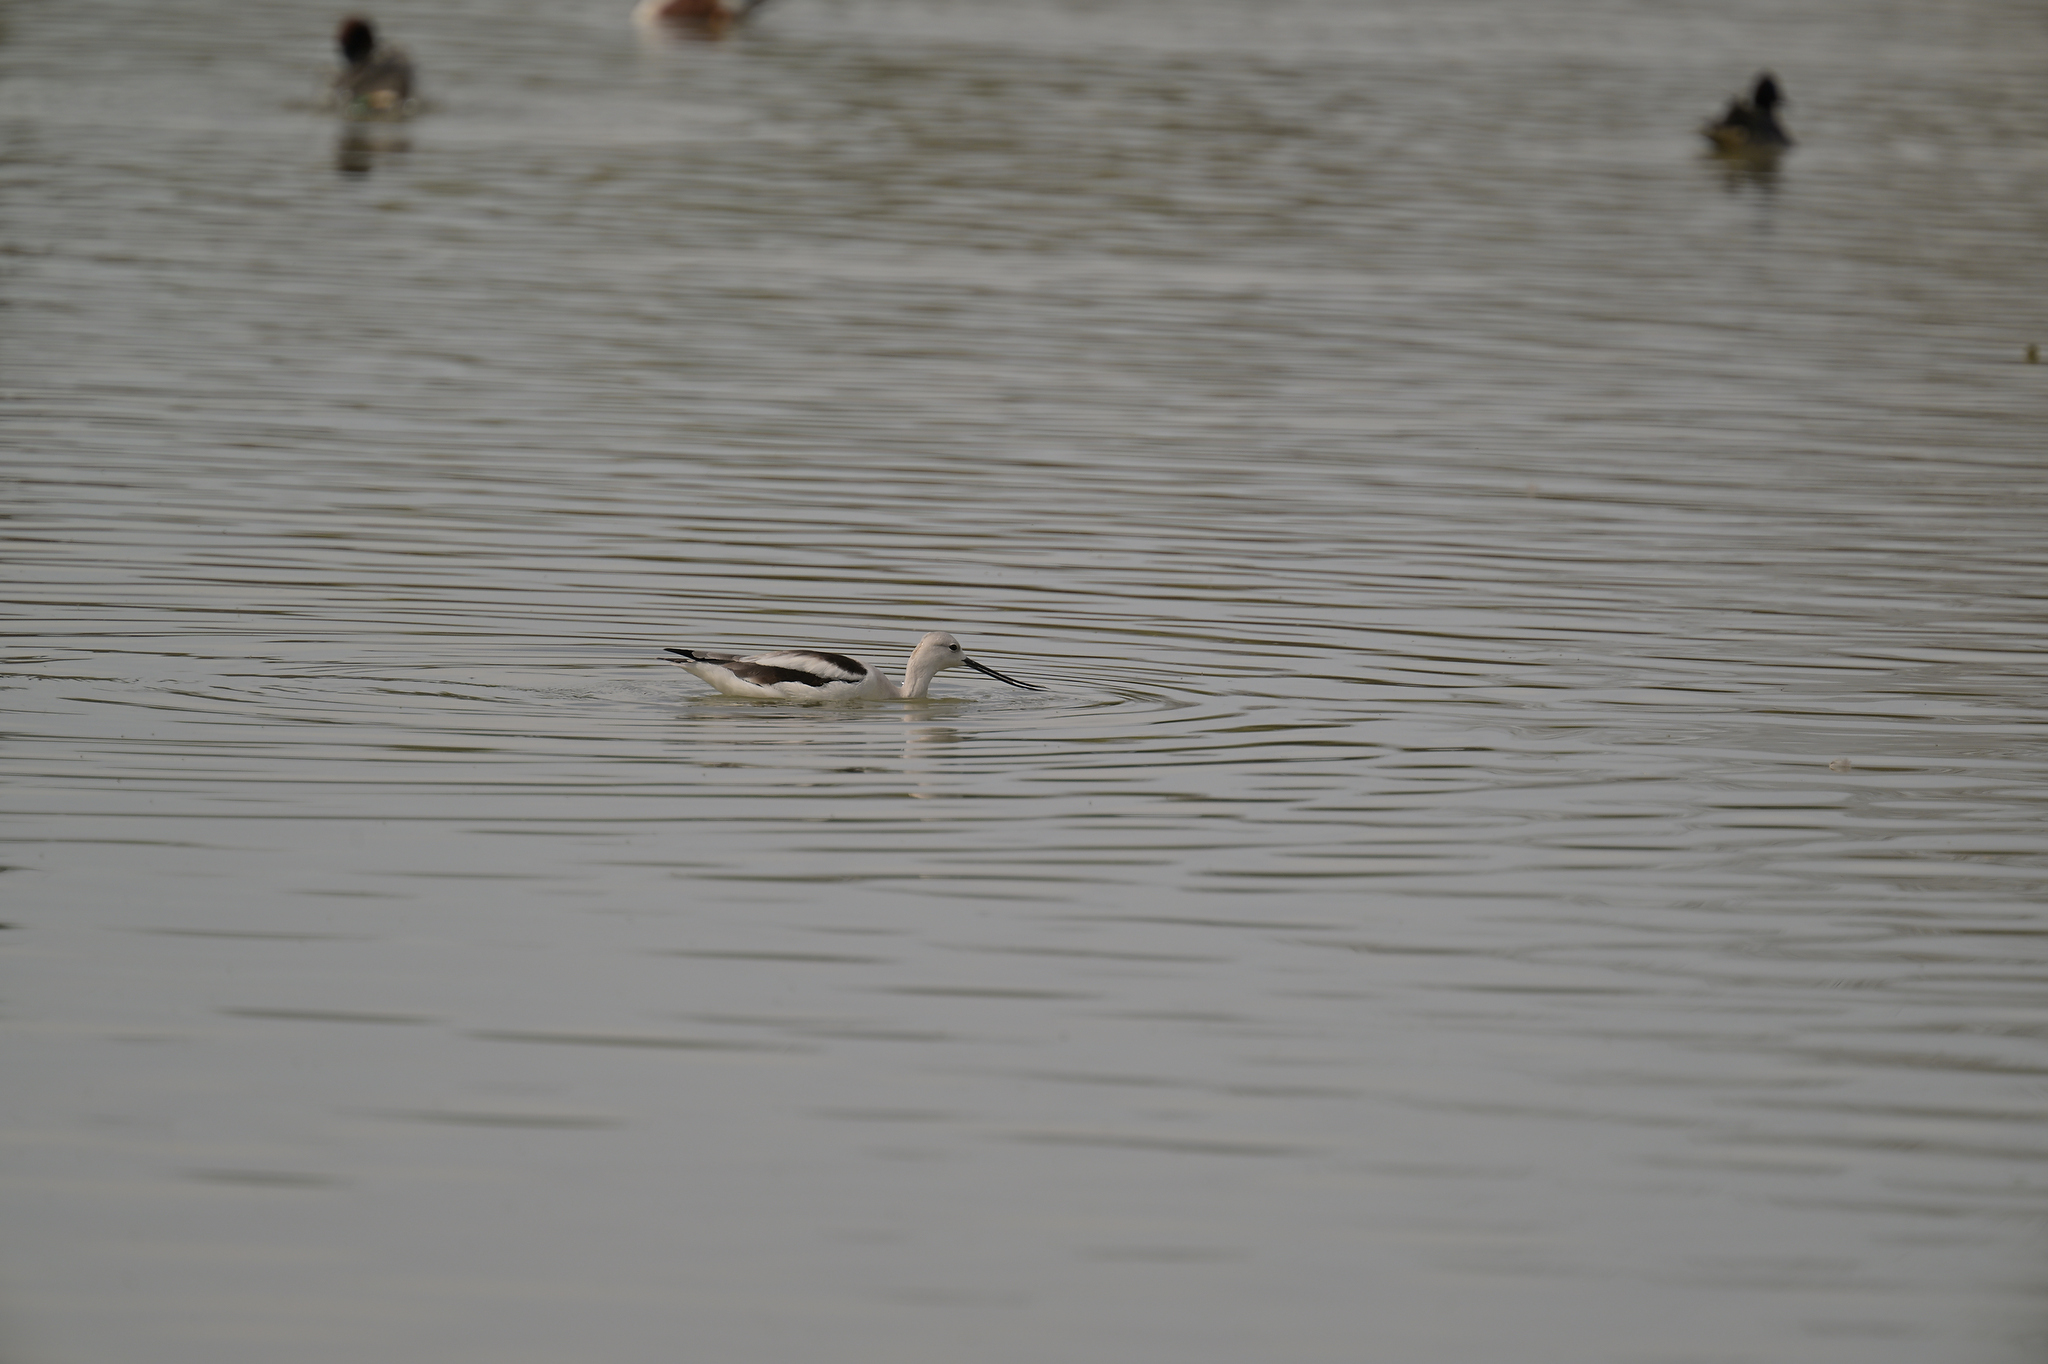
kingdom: Animalia
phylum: Chordata
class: Aves
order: Charadriiformes
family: Recurvirostridae
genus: Recurvirostra
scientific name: Recurvirostra americana
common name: American avocet
